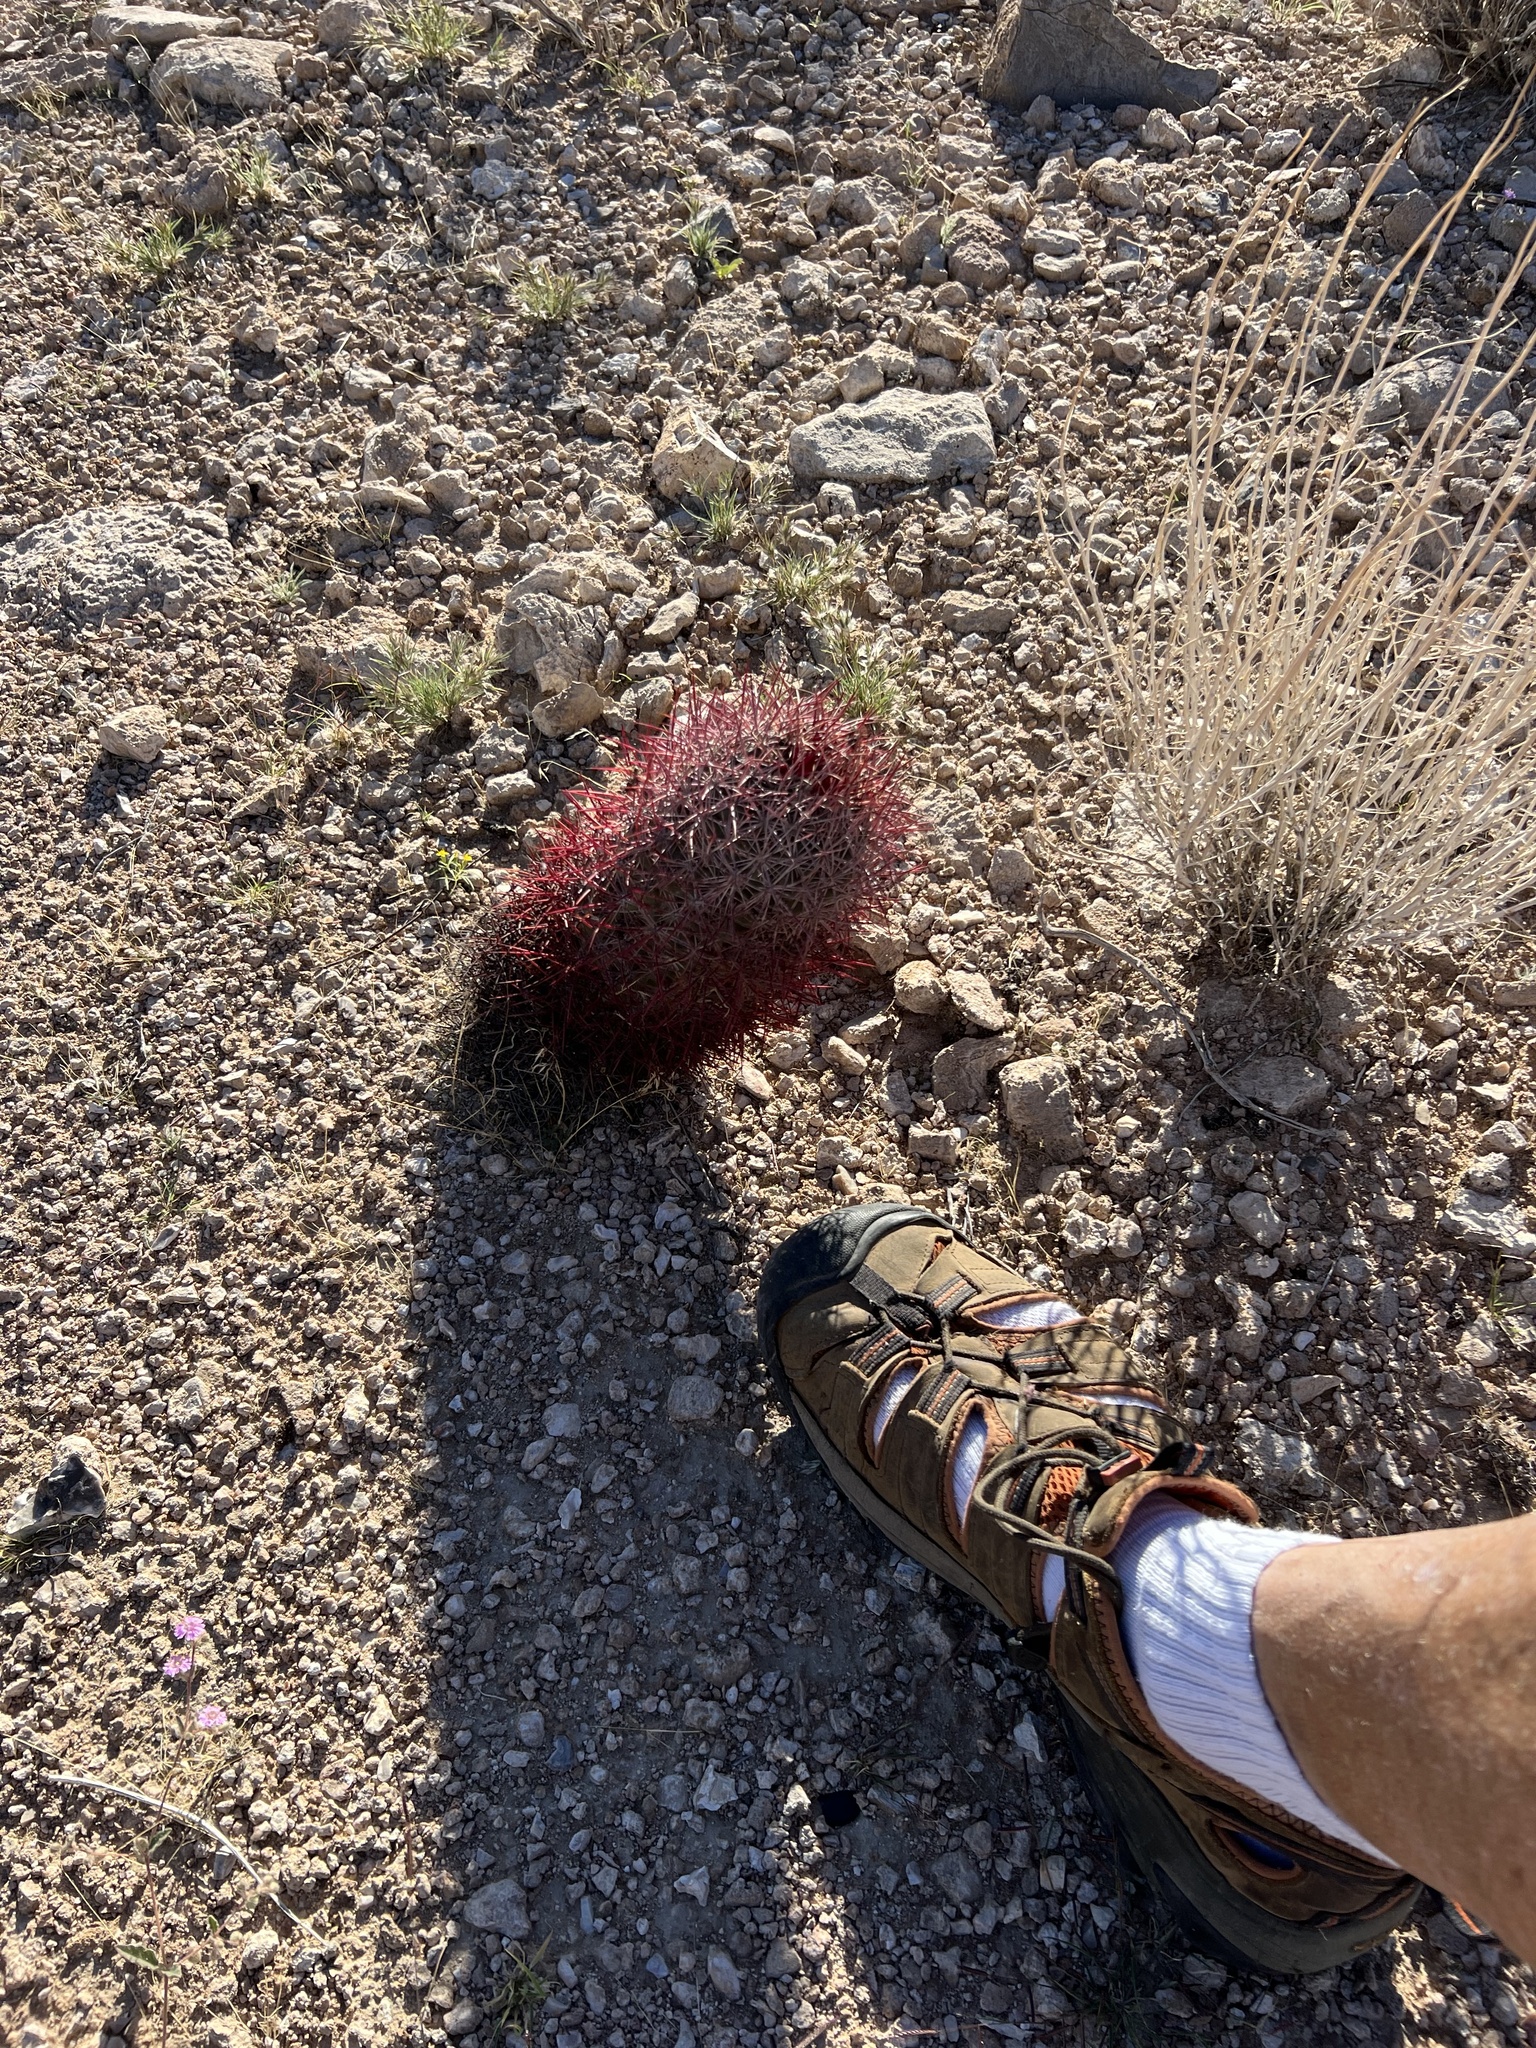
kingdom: Plantae
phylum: Tracheophyta
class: Magnoliopsida
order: Caryophyllales
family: Cactaceae
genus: Sclerocactus
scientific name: Sclerocactus johnsonii
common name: Eight-spine fishhook cactus
